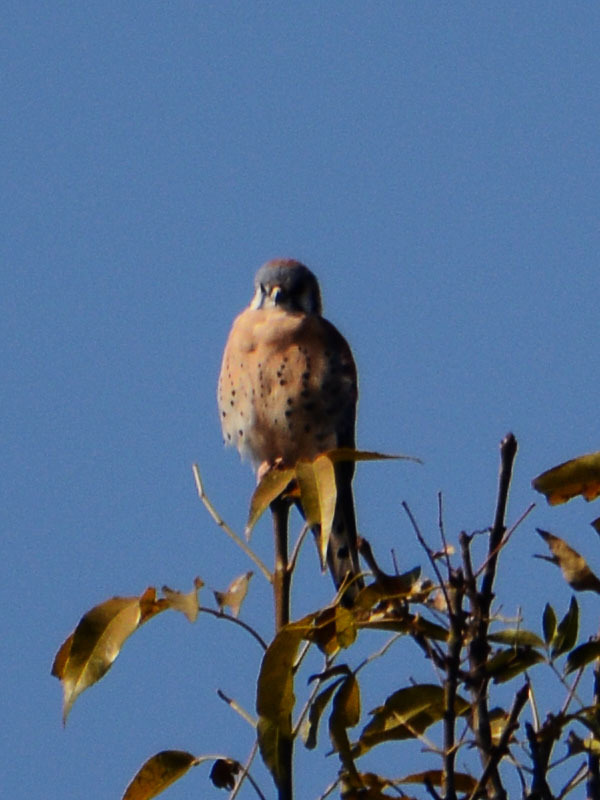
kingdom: Animalia
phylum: Chordata
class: Aves
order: Falconiformes
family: Falconidae
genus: Falco
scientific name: Falco sparverius
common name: American kestrel
